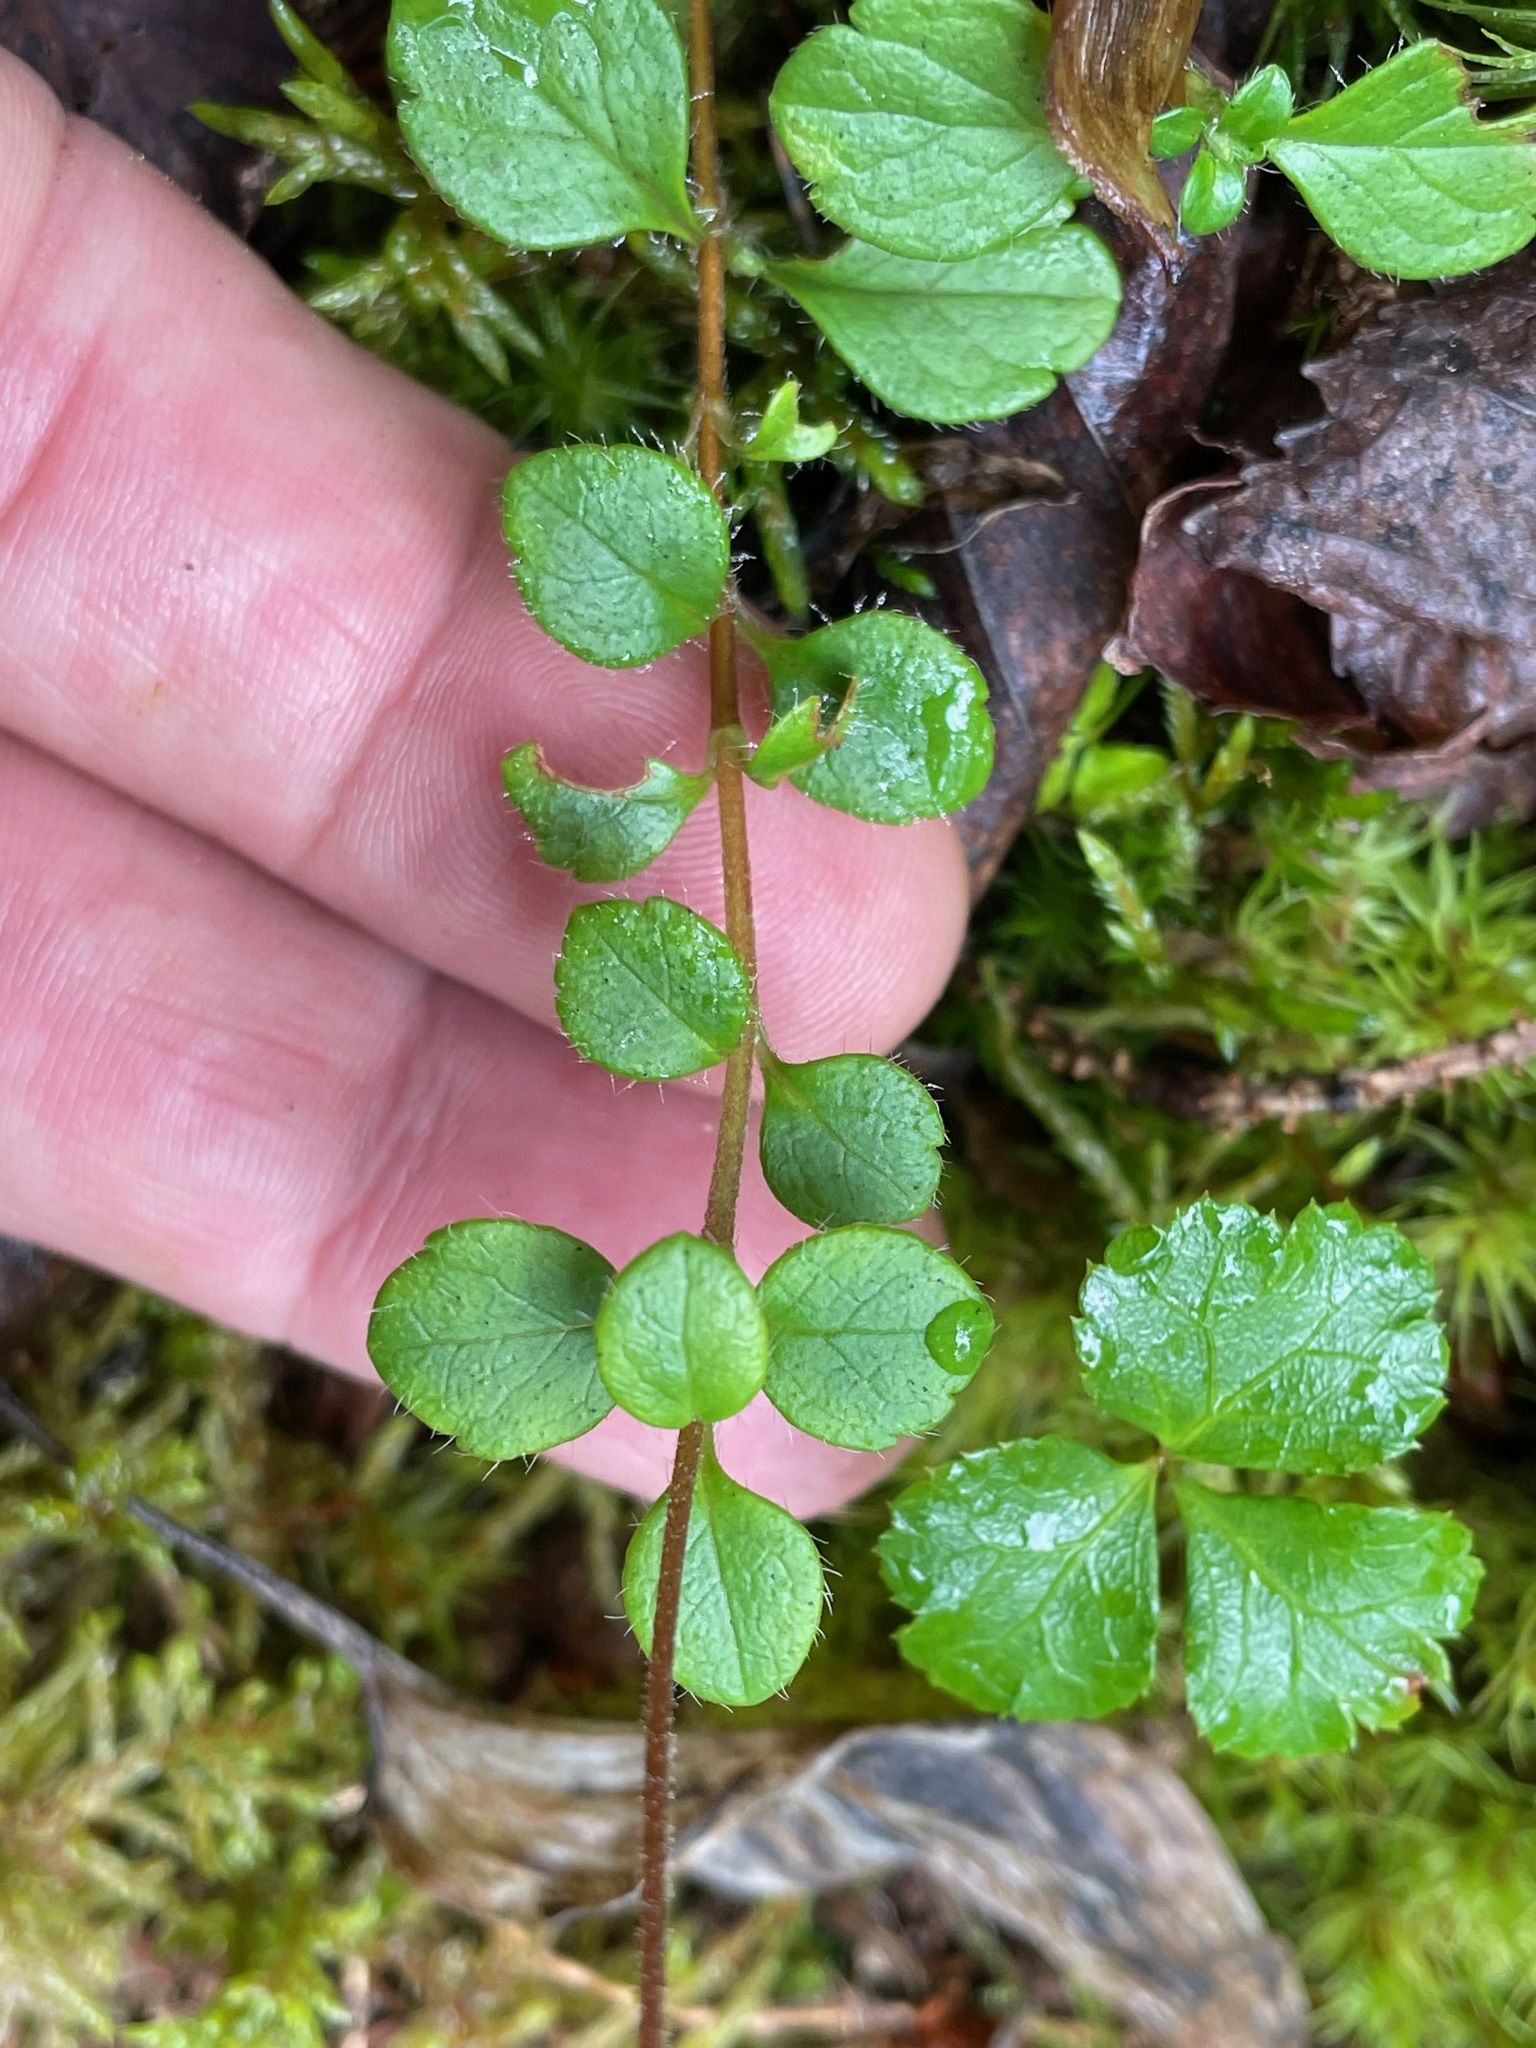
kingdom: Plantae
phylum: Tracheophyta
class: Magnoliopsida
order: Dipsacales
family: Caprifoliaceae
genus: Linnaea
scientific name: Linnaea borealis
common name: Twinflower
